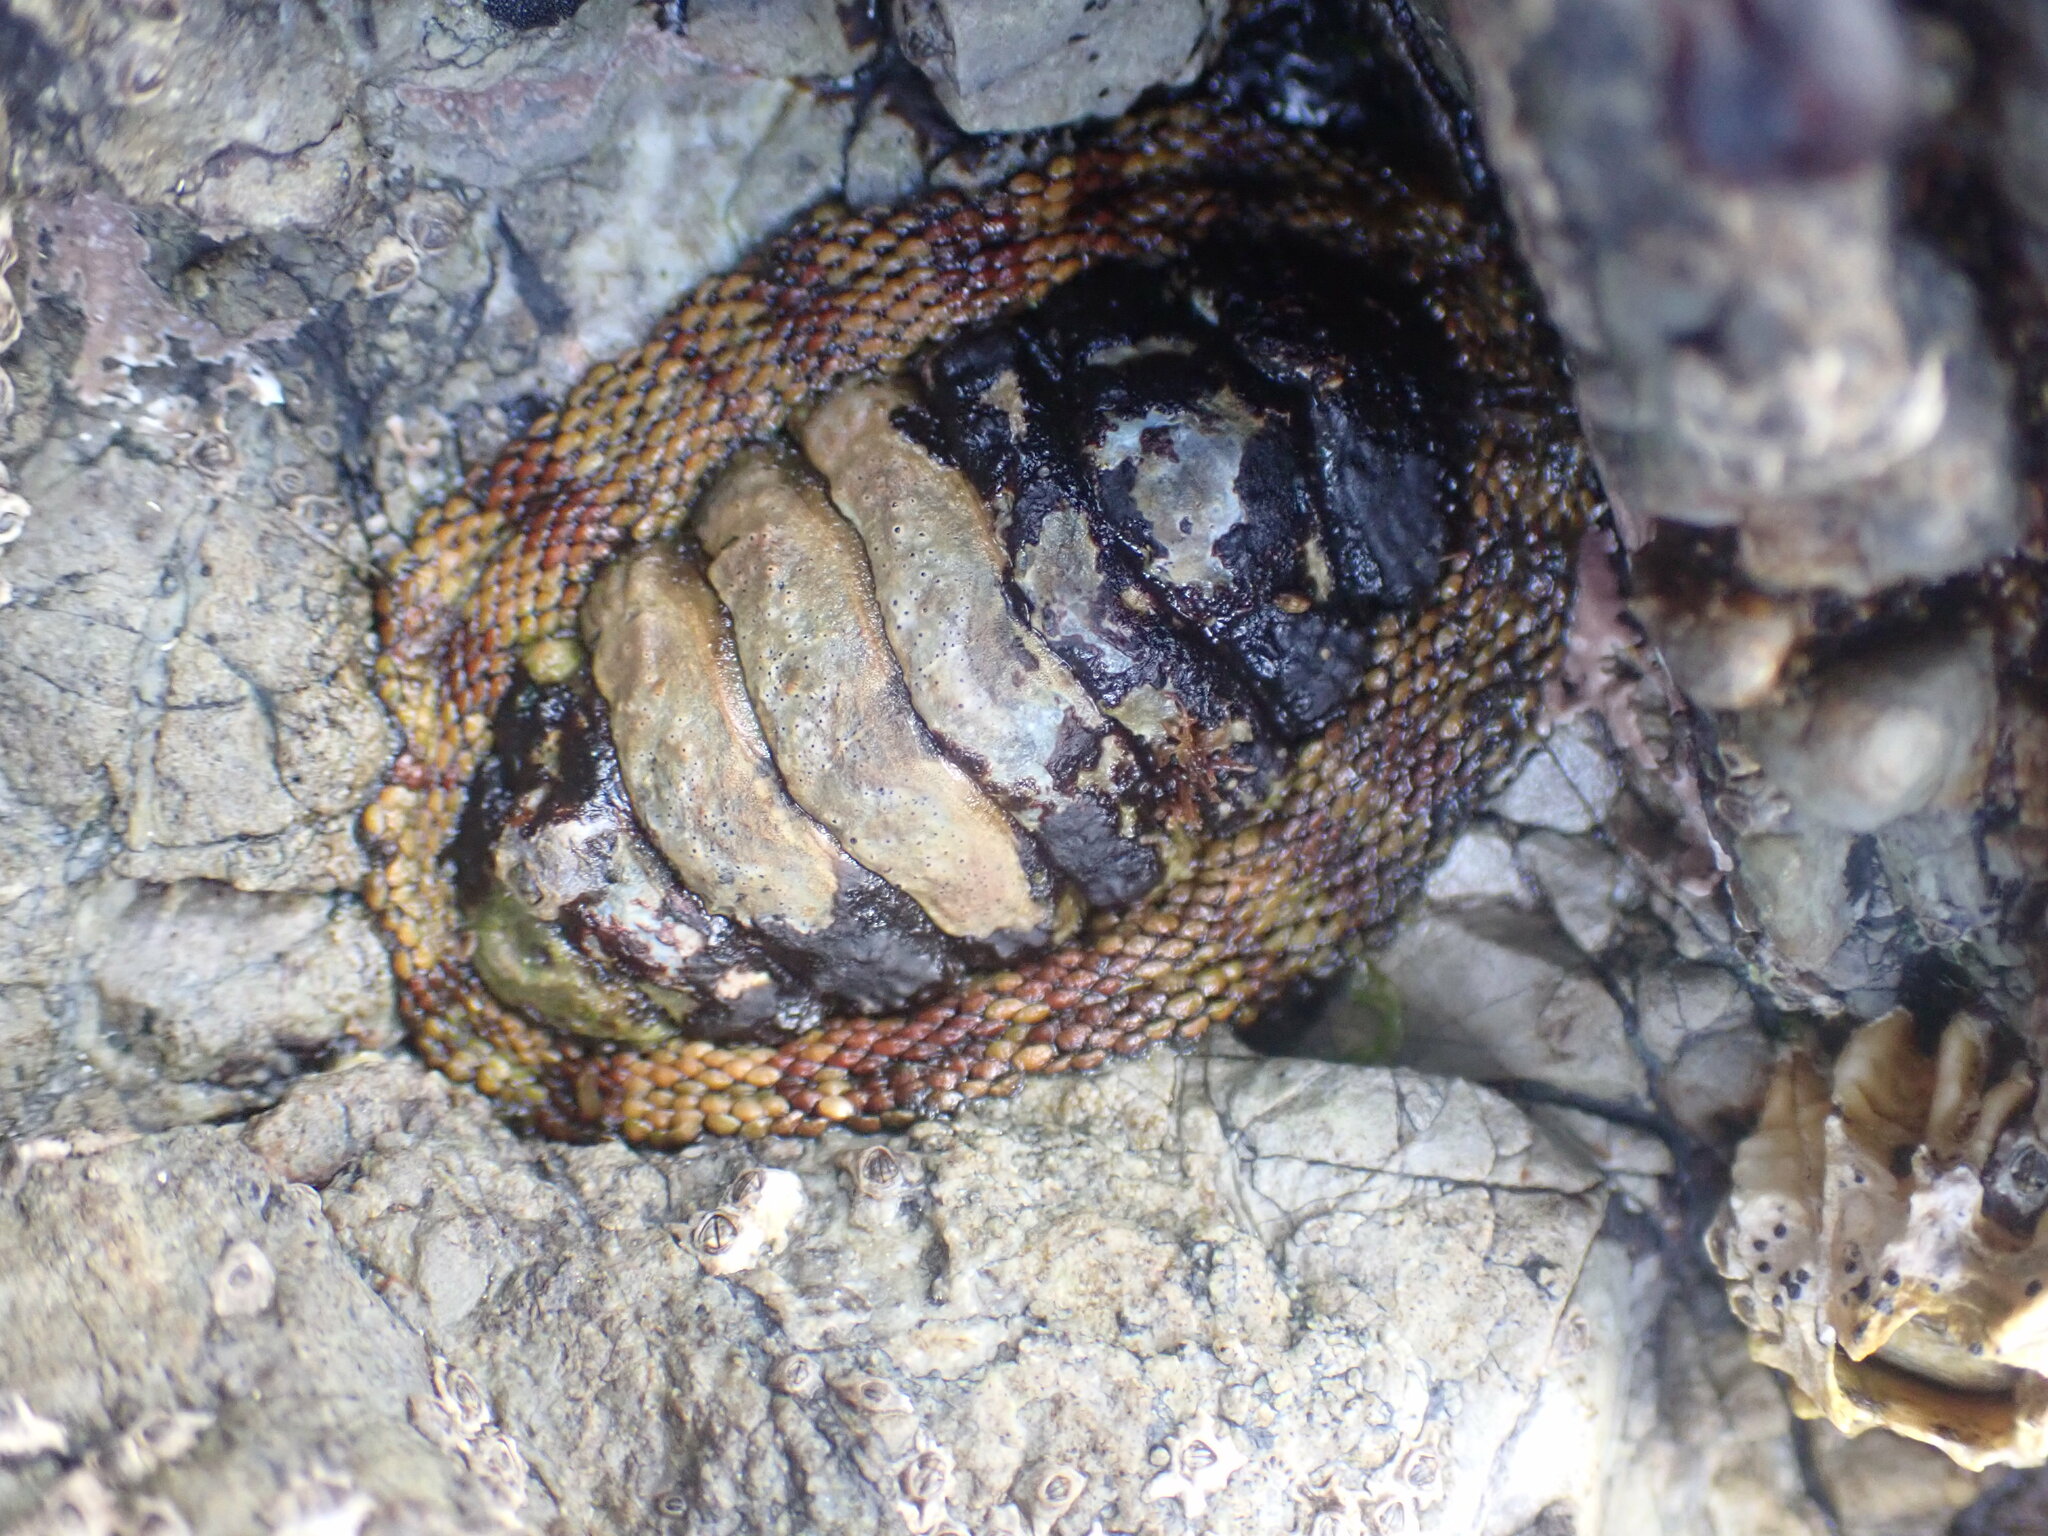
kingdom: Animalia
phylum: Mollusca
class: Polyplacophora
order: Chitonida
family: Chitonidae
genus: Sypharochiton
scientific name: Sypharochiton pelliserpentis
